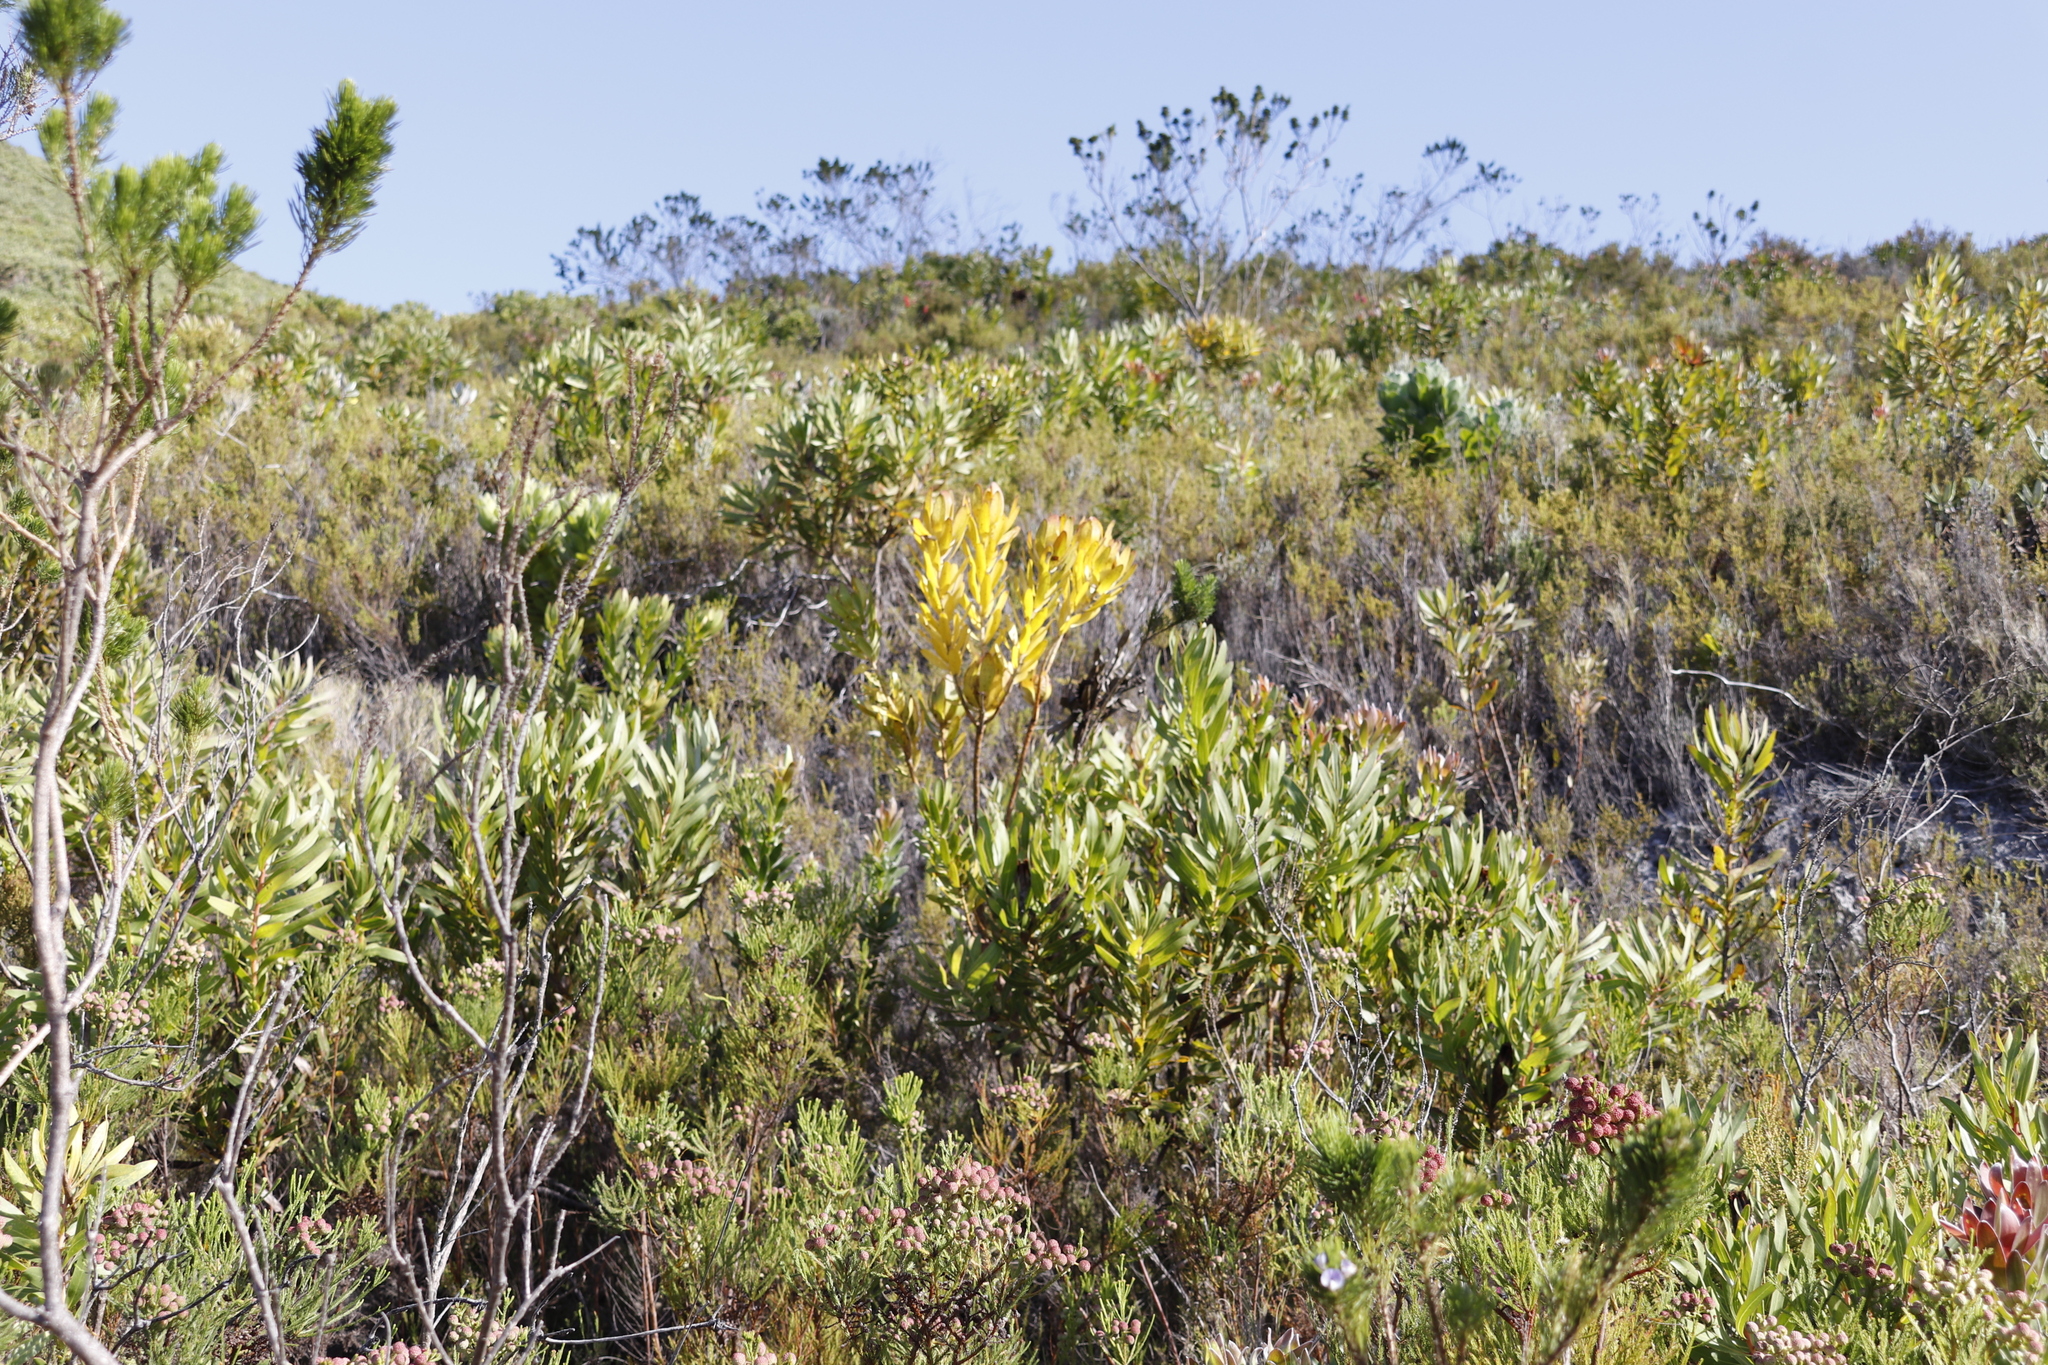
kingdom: Plantae
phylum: Tracheophyta
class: Magnoliopsida
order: Proteales
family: Proteaceae
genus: Leucadendron
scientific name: Leucadendron laureolum
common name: Golden sunshinebush
